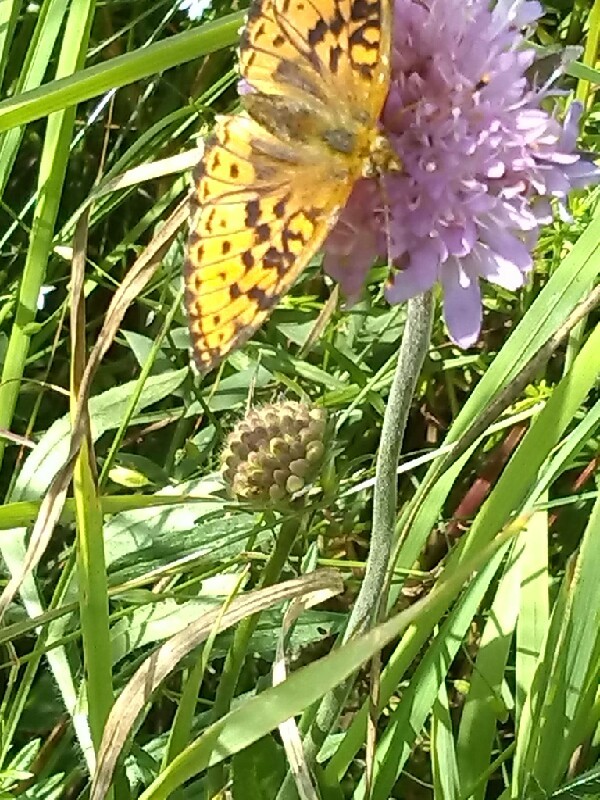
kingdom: Animalia
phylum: Arthropoda
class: Insecta
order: Lepidoptera
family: Nymphalidae
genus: Brenthis
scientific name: Brenthis ino
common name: Lesser marbled fritillary
